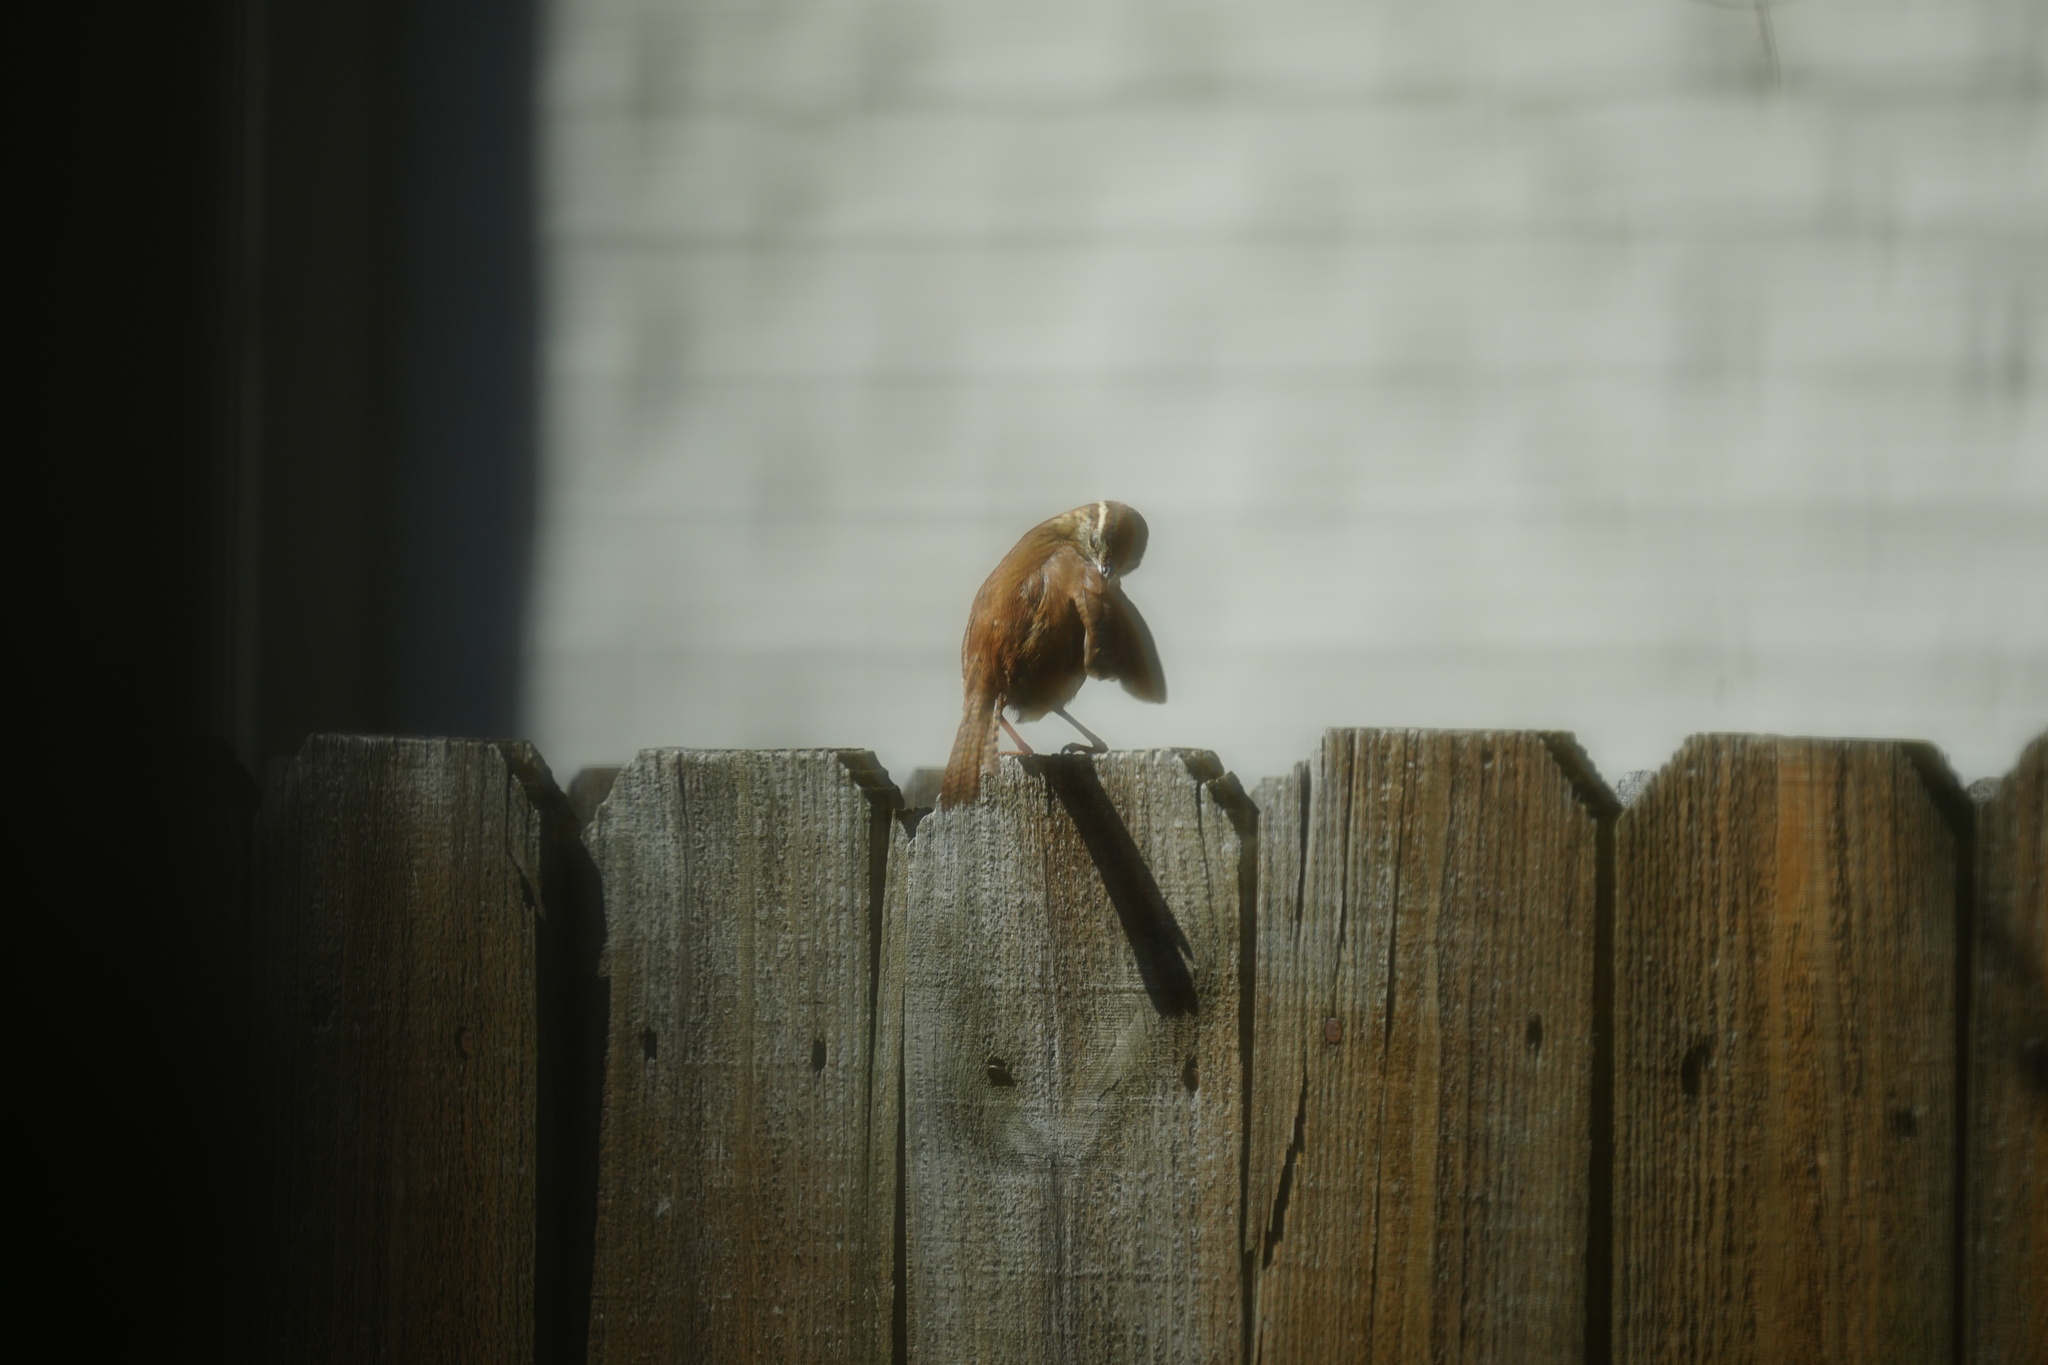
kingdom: Animalia
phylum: Chordata
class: Aves
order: Passeriformes
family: Troglodytidae
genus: Thryothorus
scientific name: Thryothorus ludovicianus
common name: Carolina wren
